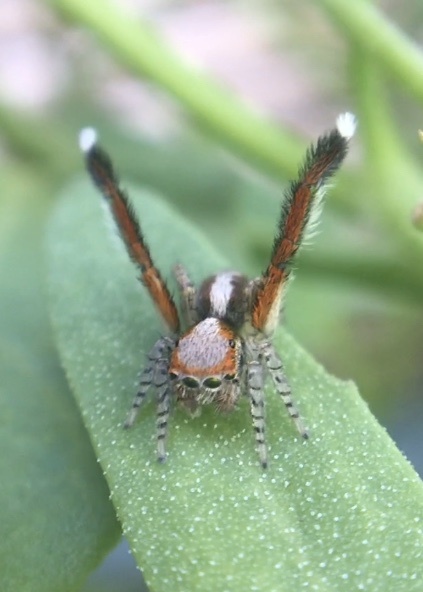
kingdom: Animalia
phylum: Arthropoda
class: Arachnida
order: Araneae
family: Salticidae
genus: Saitis
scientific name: Saitis barbipes
